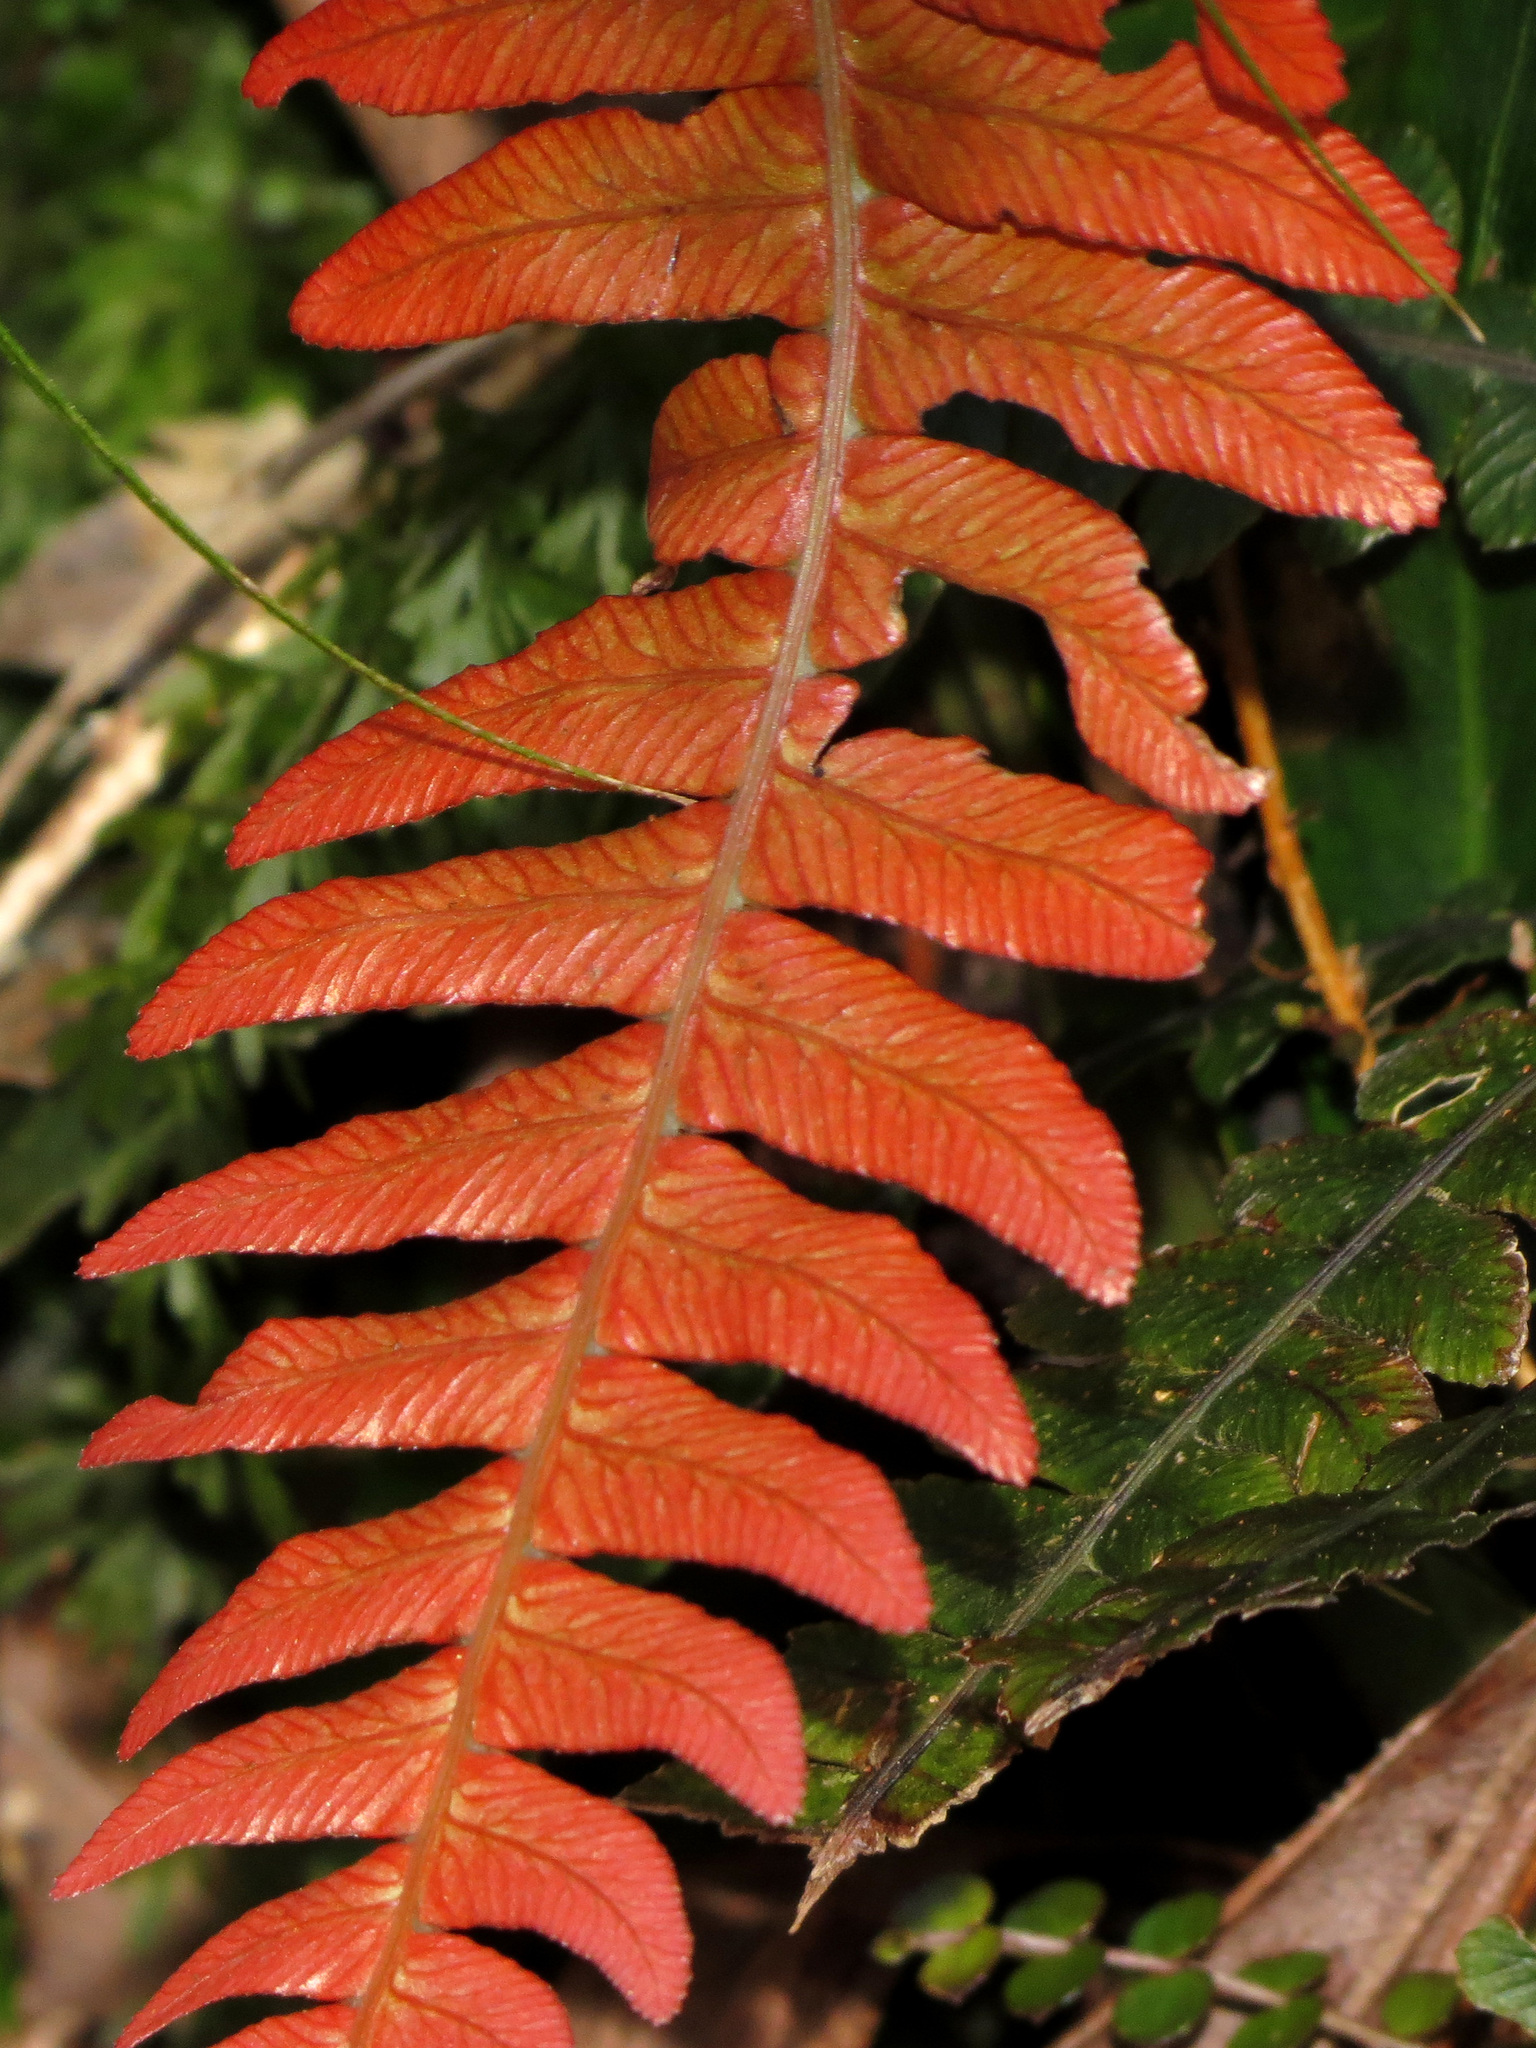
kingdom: Plantae
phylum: Tracheophyta
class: Polypodiopsida
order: Polypodiales
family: Blechnaceae
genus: Austroblechnum
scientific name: Austroblechnum lanceolatum
